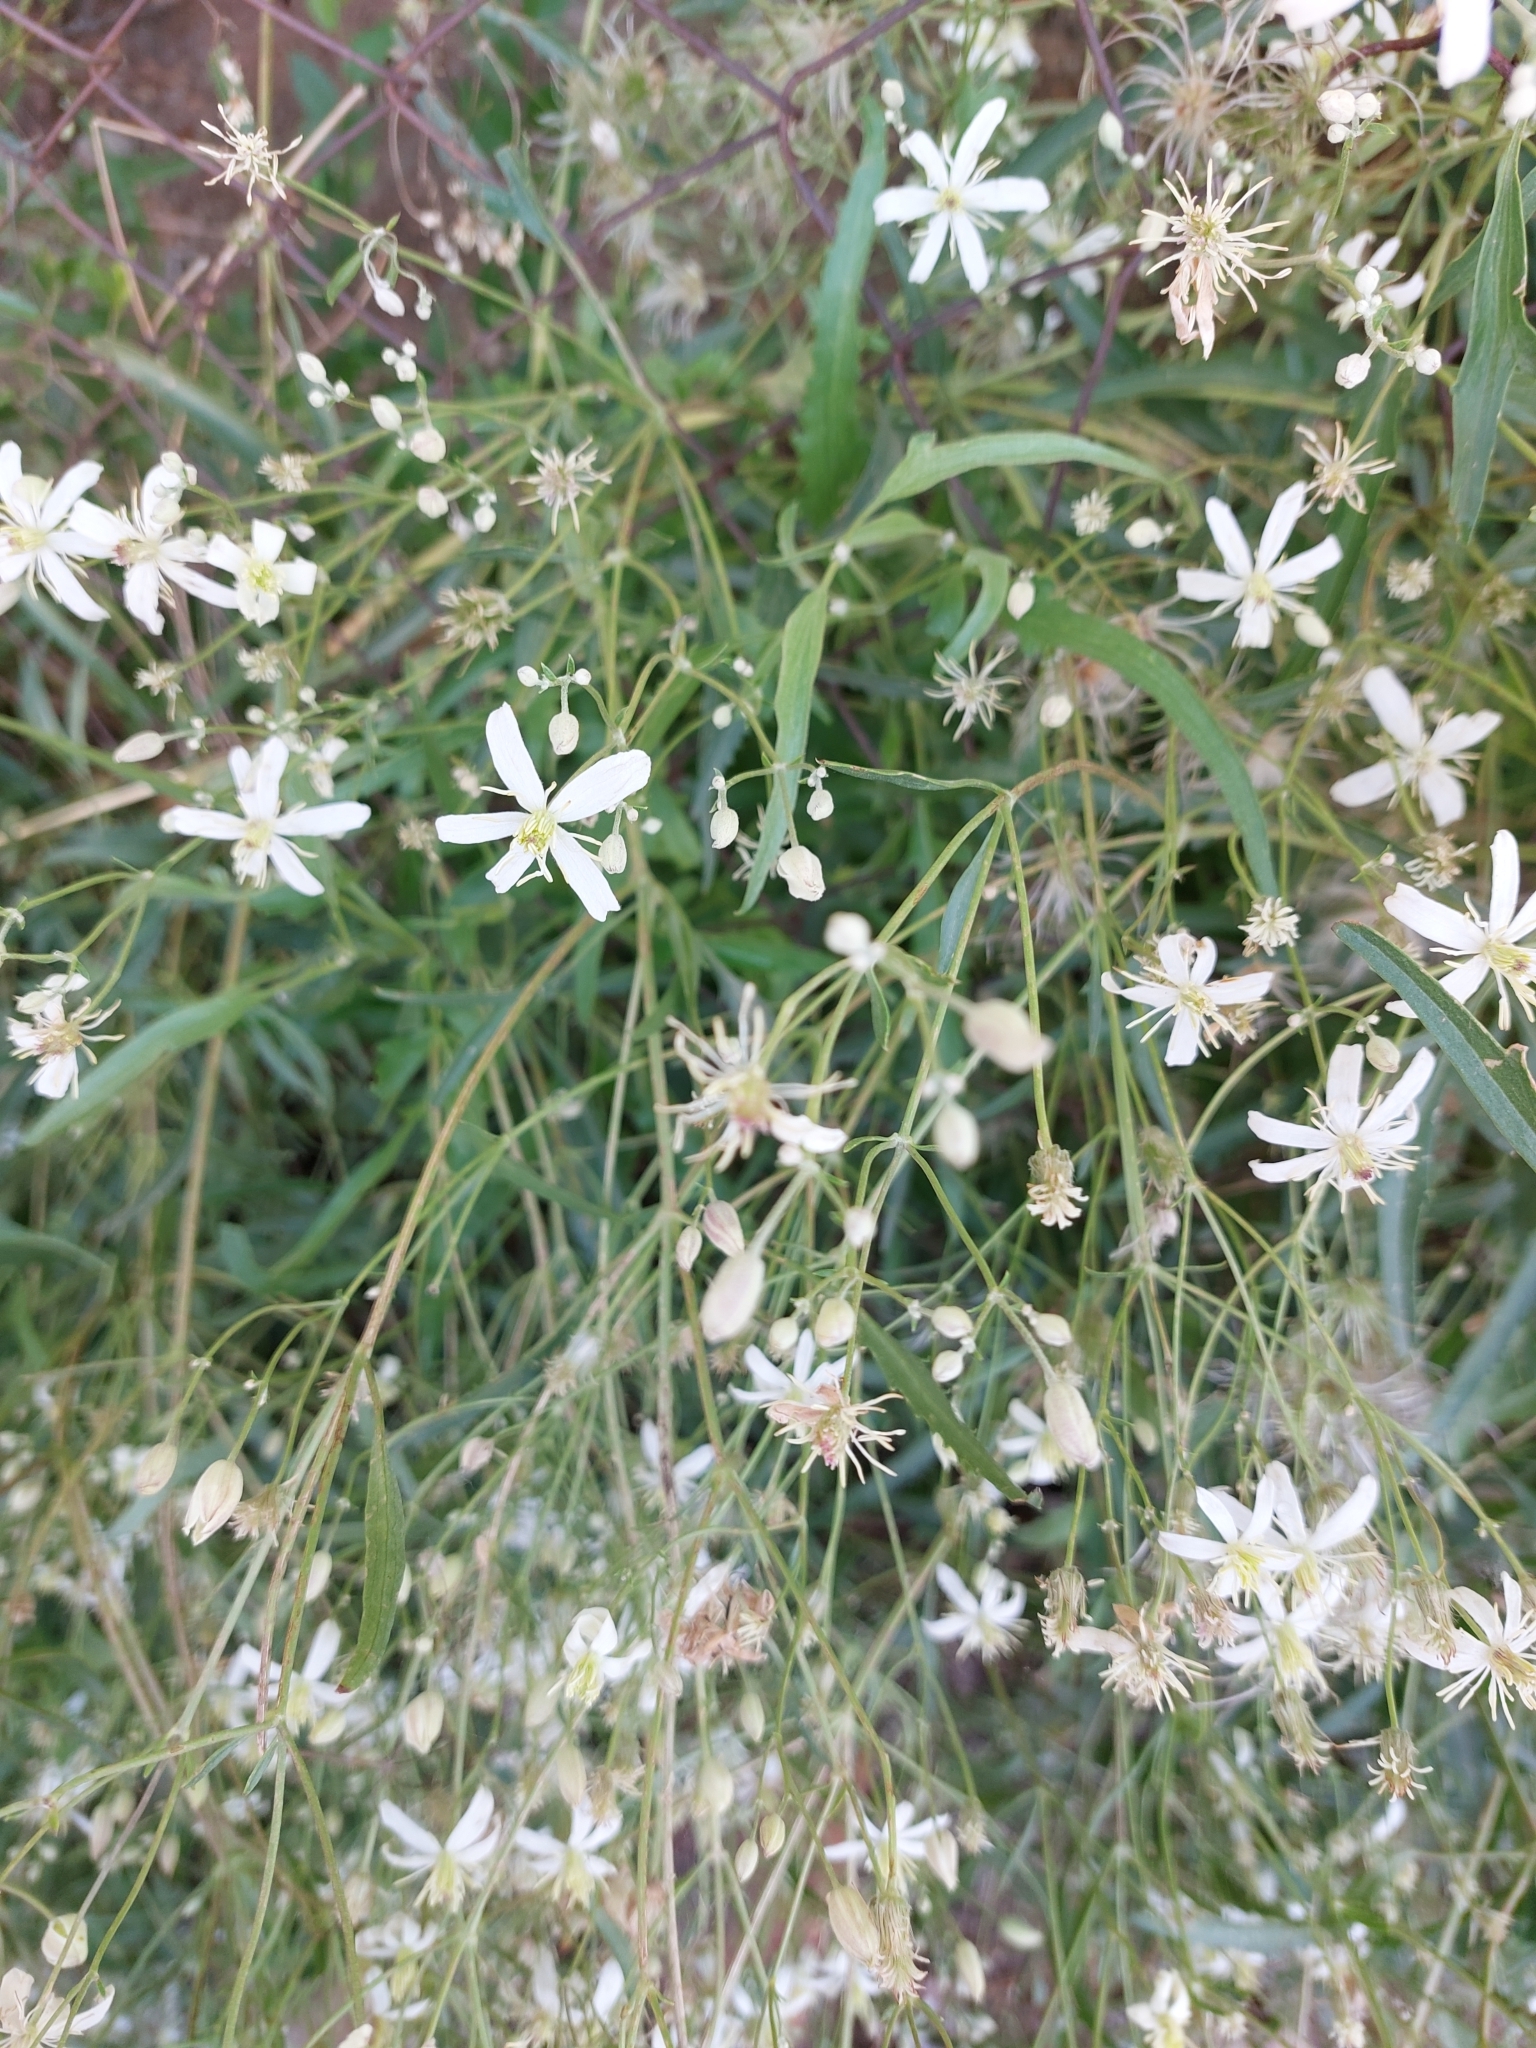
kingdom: Plantae
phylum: Tracheophyta
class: Magnoliopsida
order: Ranunculales
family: Ranunculaceae
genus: Clematis
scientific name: Clematis songorica
